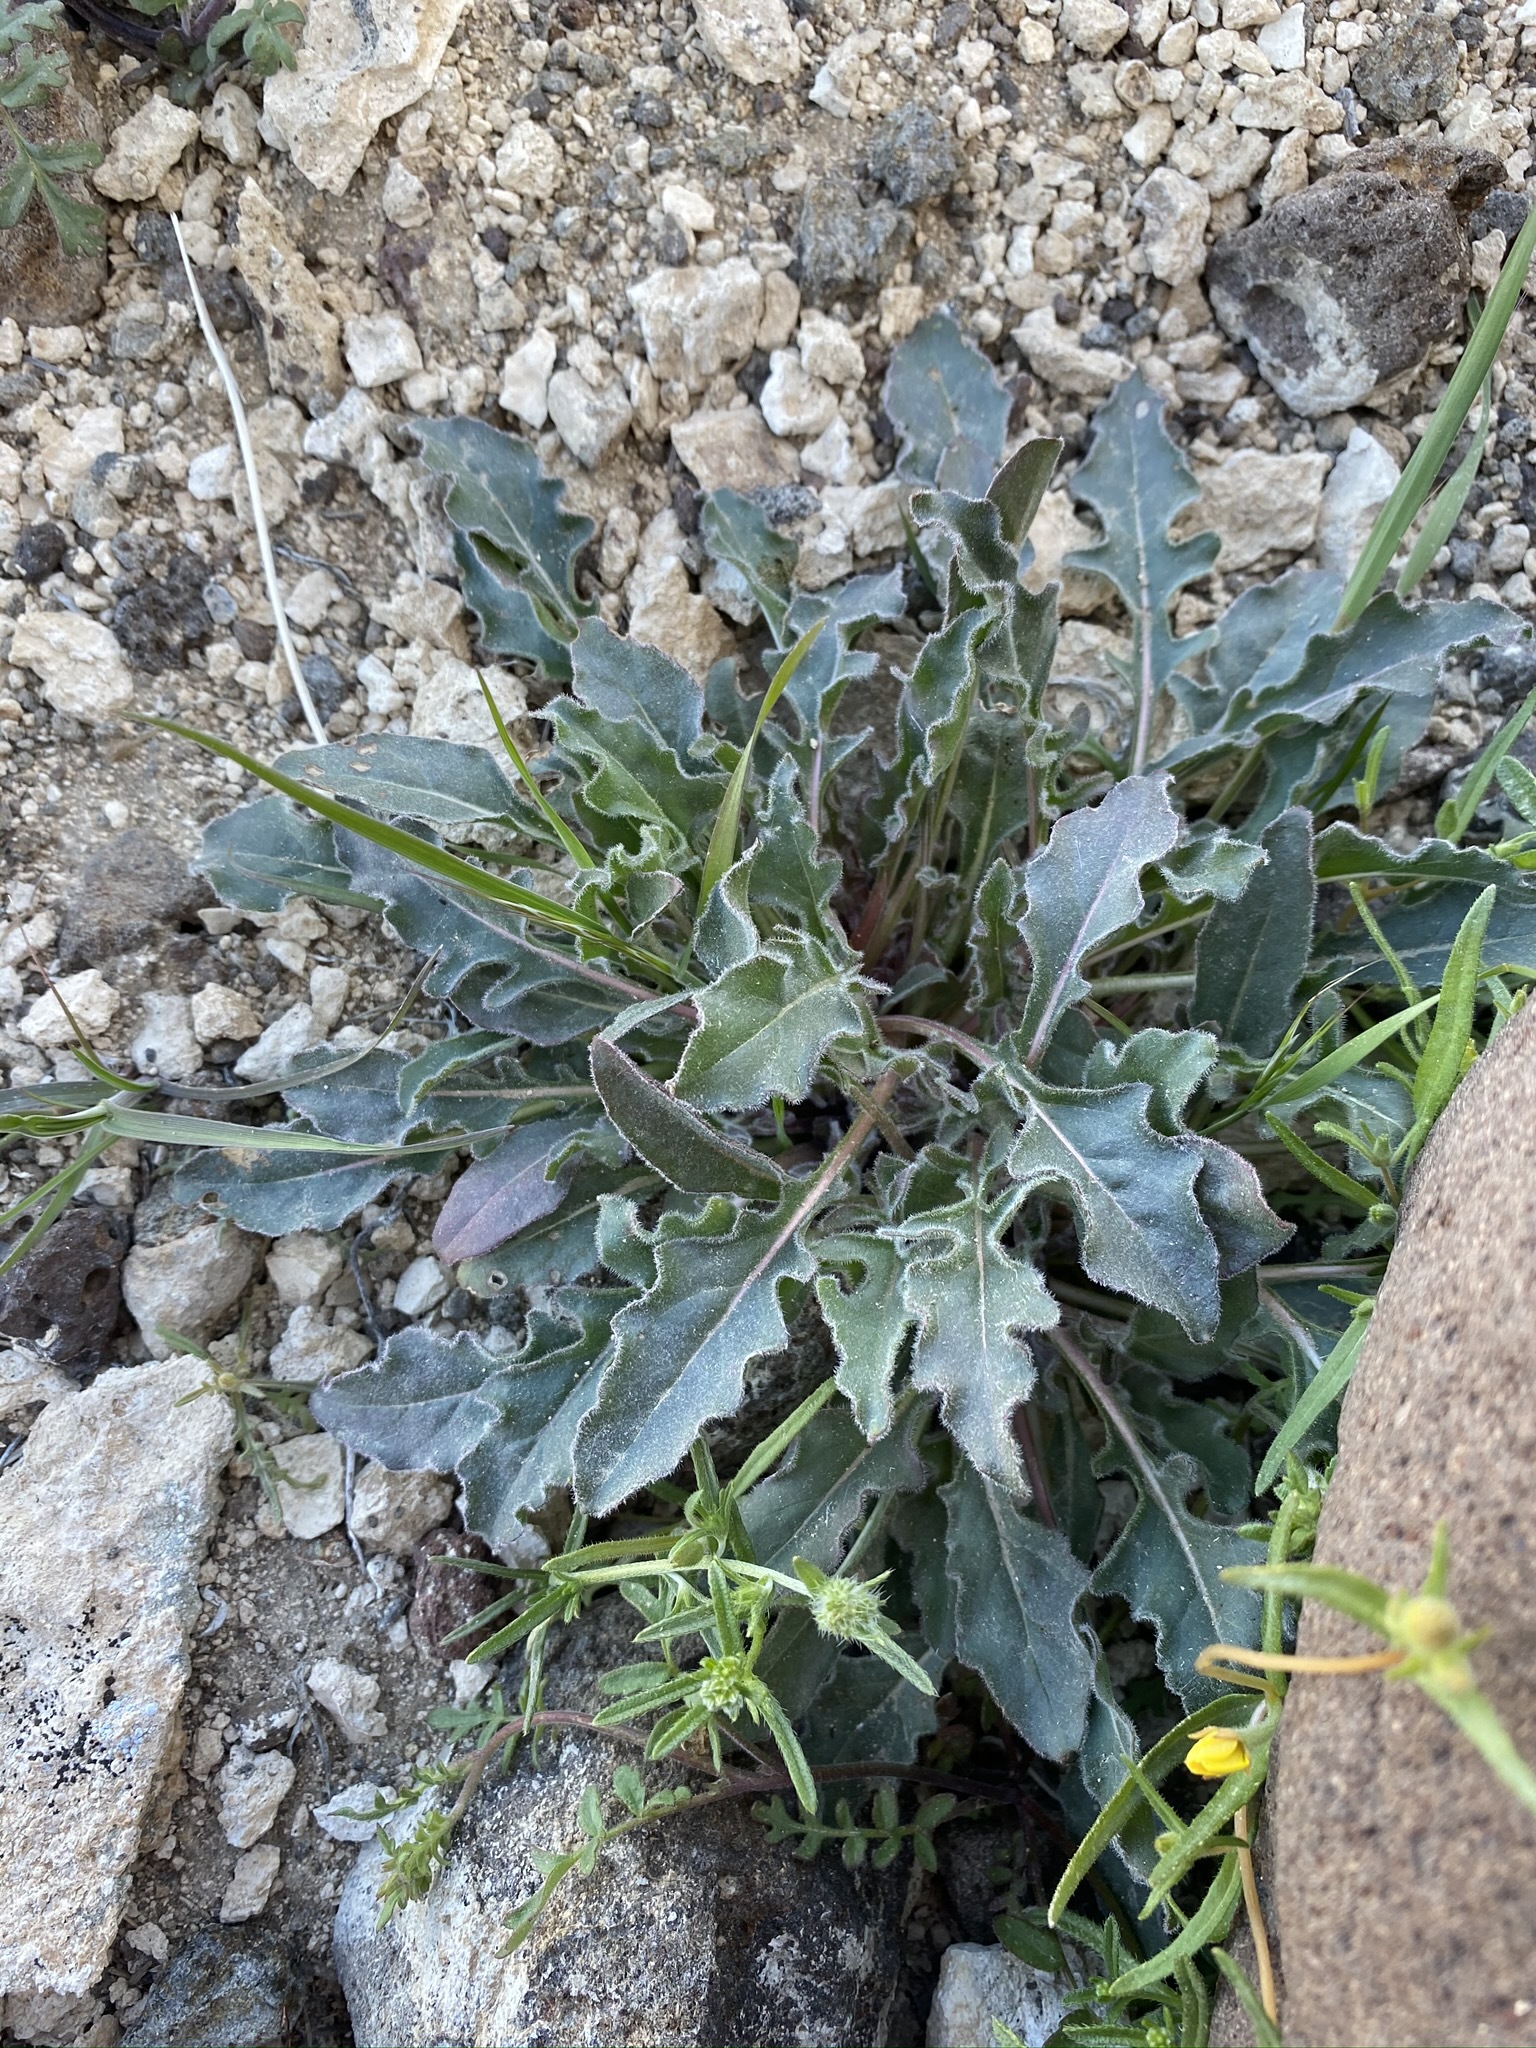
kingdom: Plantae
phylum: Tracheophyta
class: Magnoliopsida
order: Myrtales
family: Onagraceae
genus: Oenothera
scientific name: Oenothera cespitosa
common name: Tufted evening-primrose
